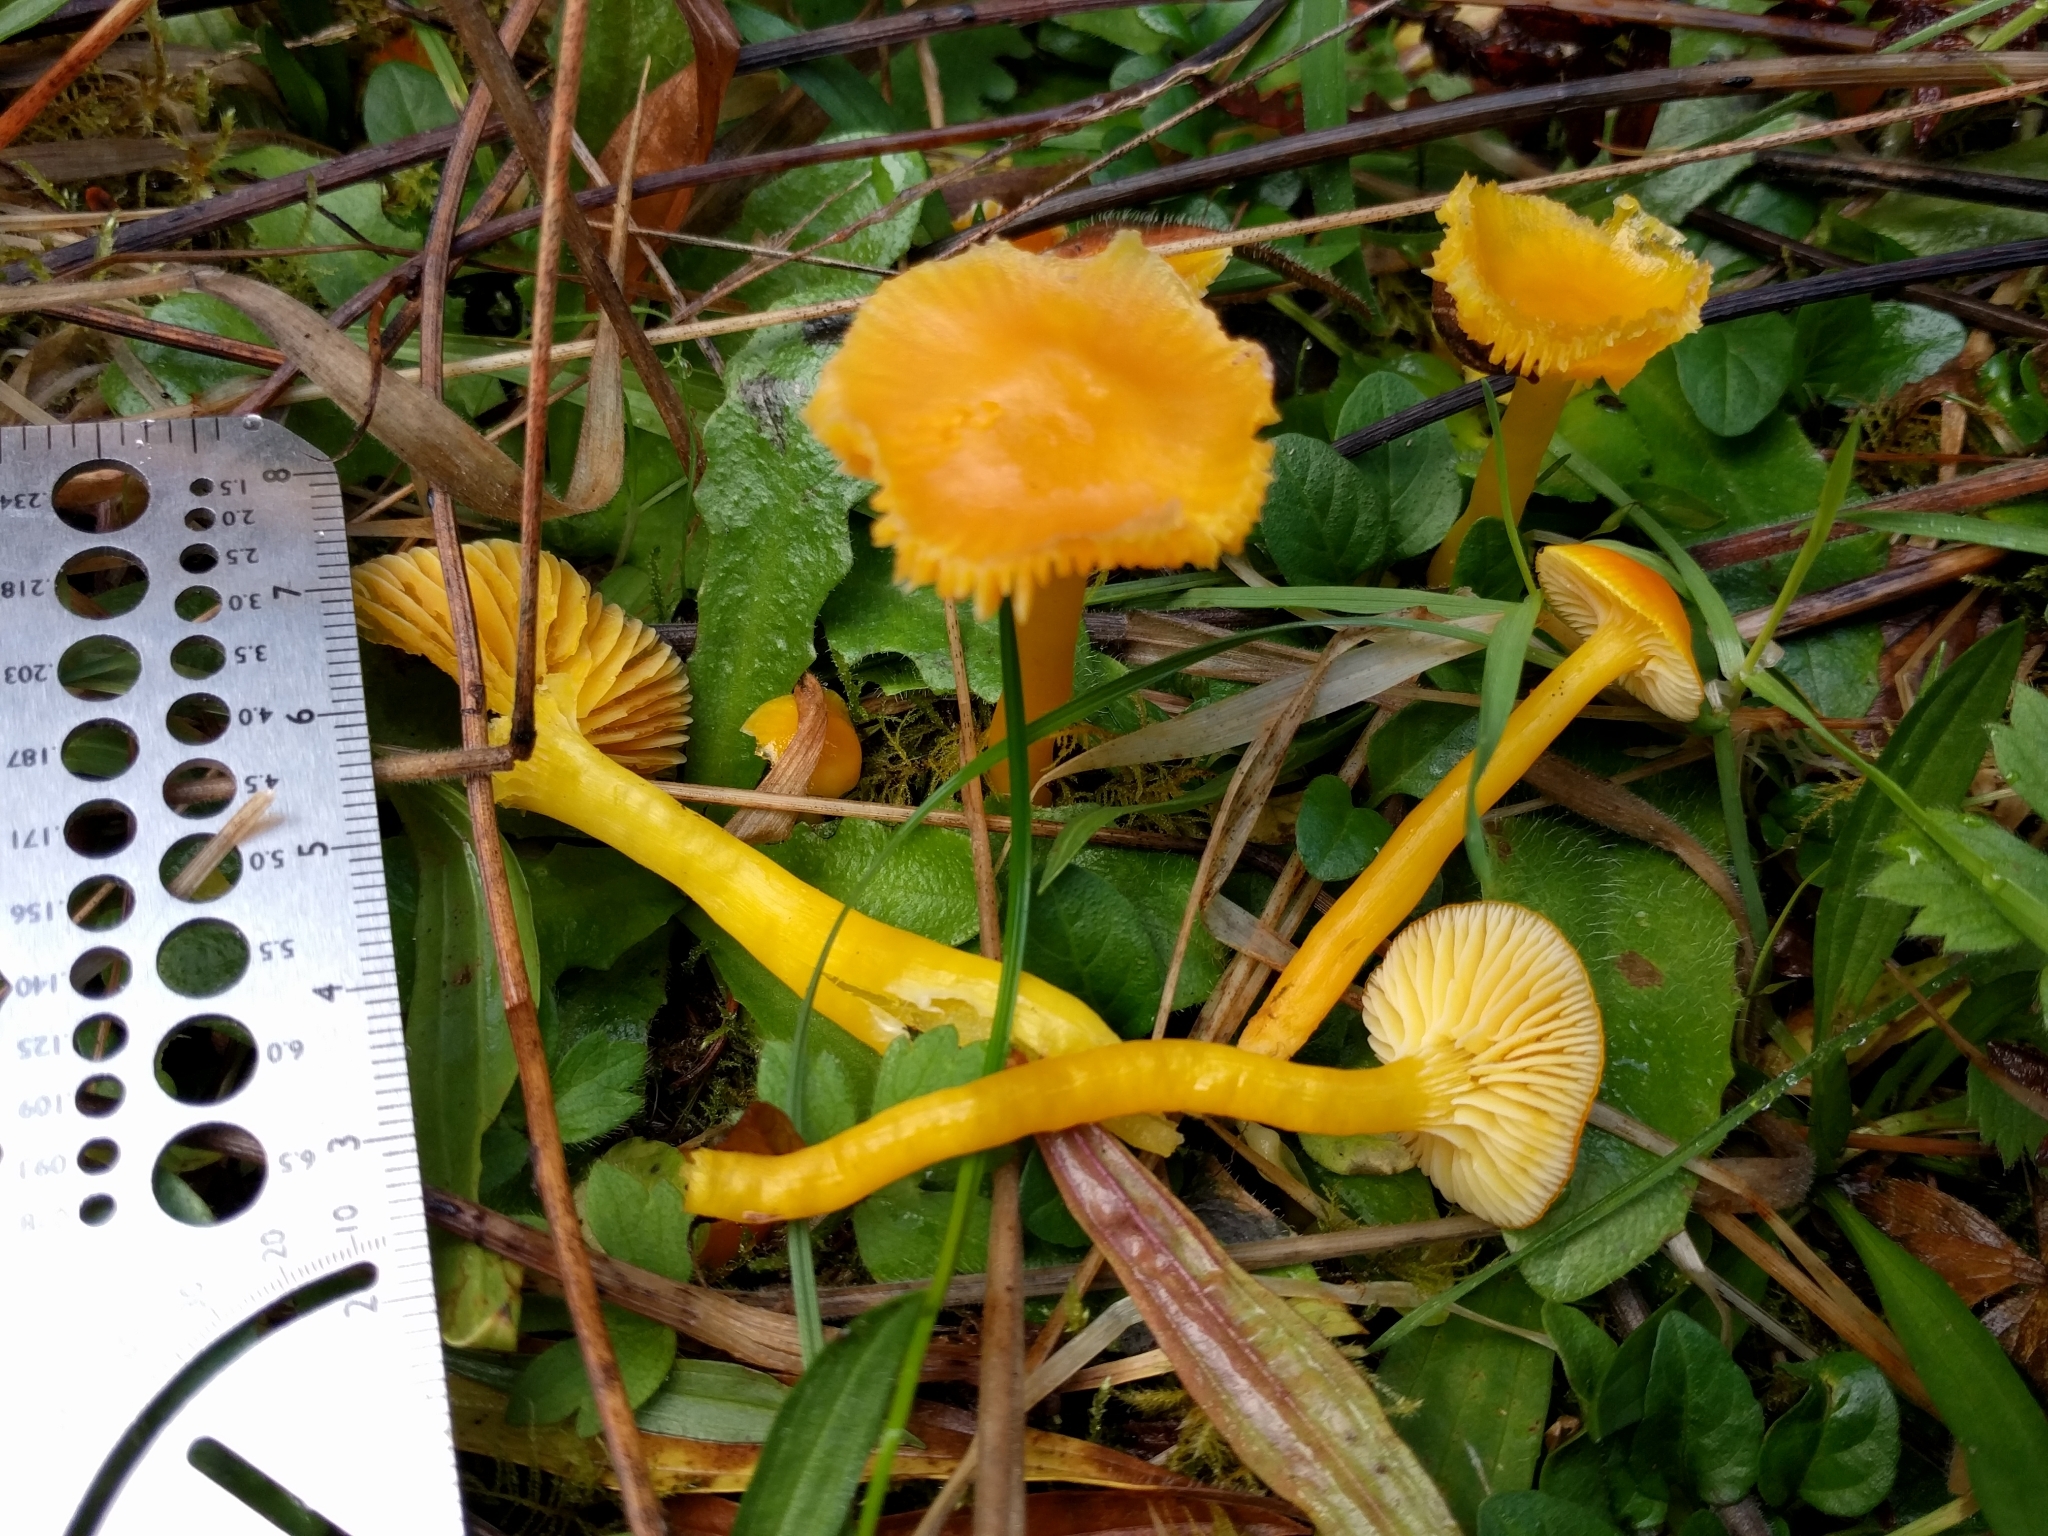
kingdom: Fungi
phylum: Basidiomycota
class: Agaricomycetes
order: Agaricales
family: Hygrophoraceae
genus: Hygrocybe
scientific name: Hygrocybe flavescens
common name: Golden waxy cap
